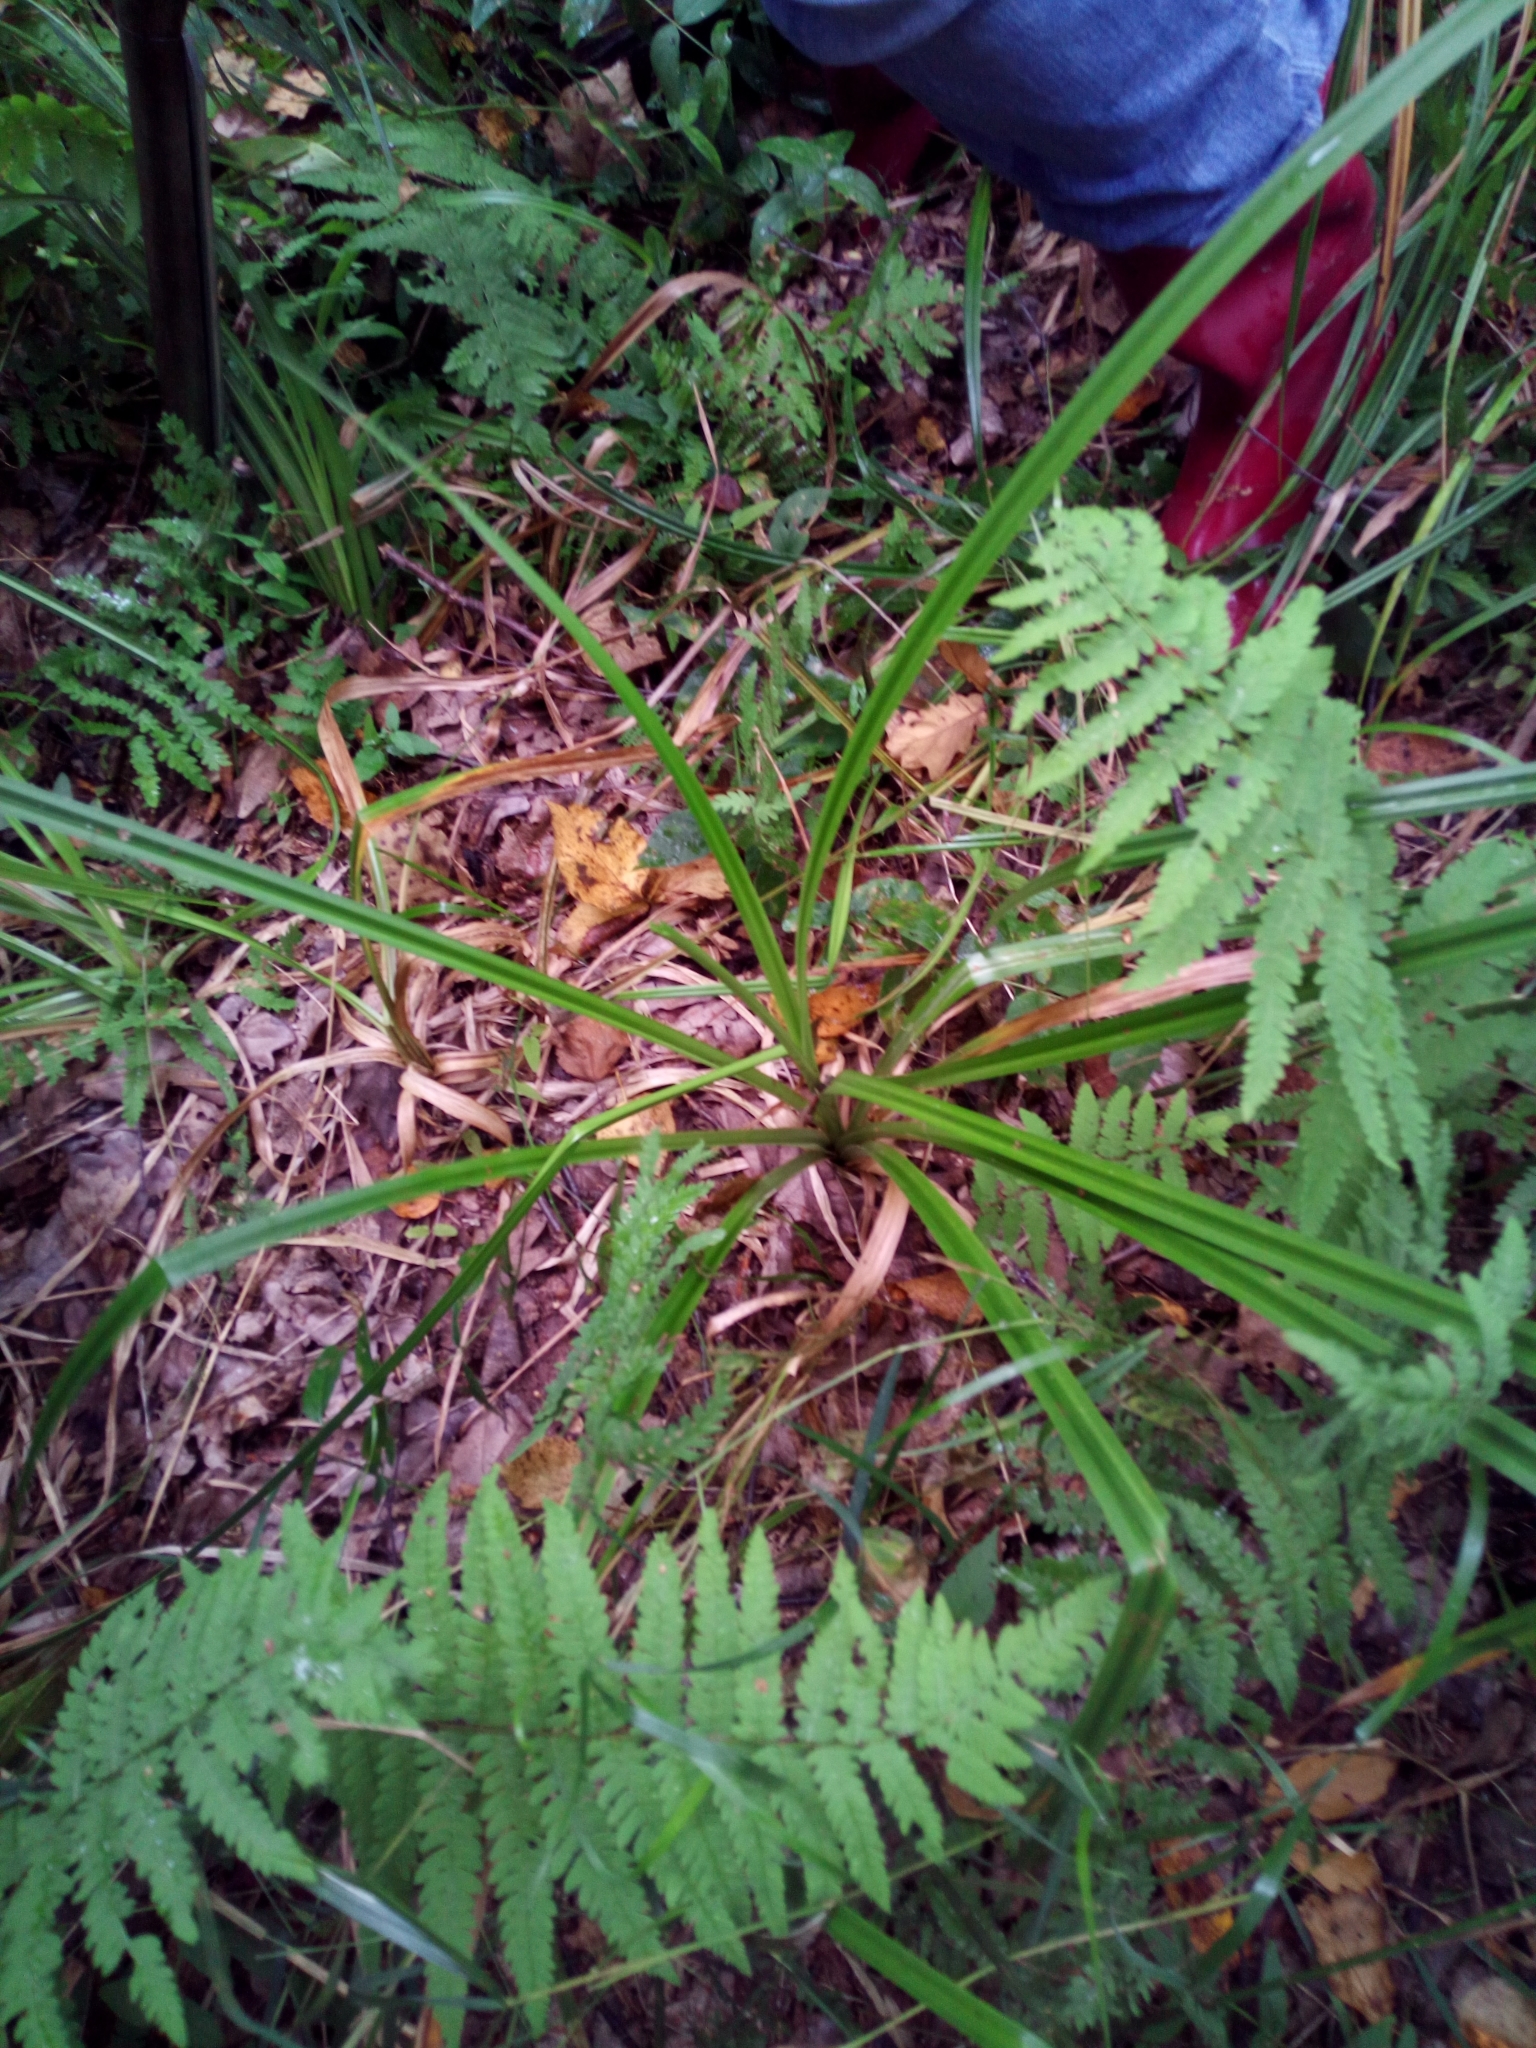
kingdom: Plantae
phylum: Tracheophyta
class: Liliopsida
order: Poales
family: Cyperaceae
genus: Scirpus
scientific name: Scirpus sylvaticus
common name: Wood club-rush
